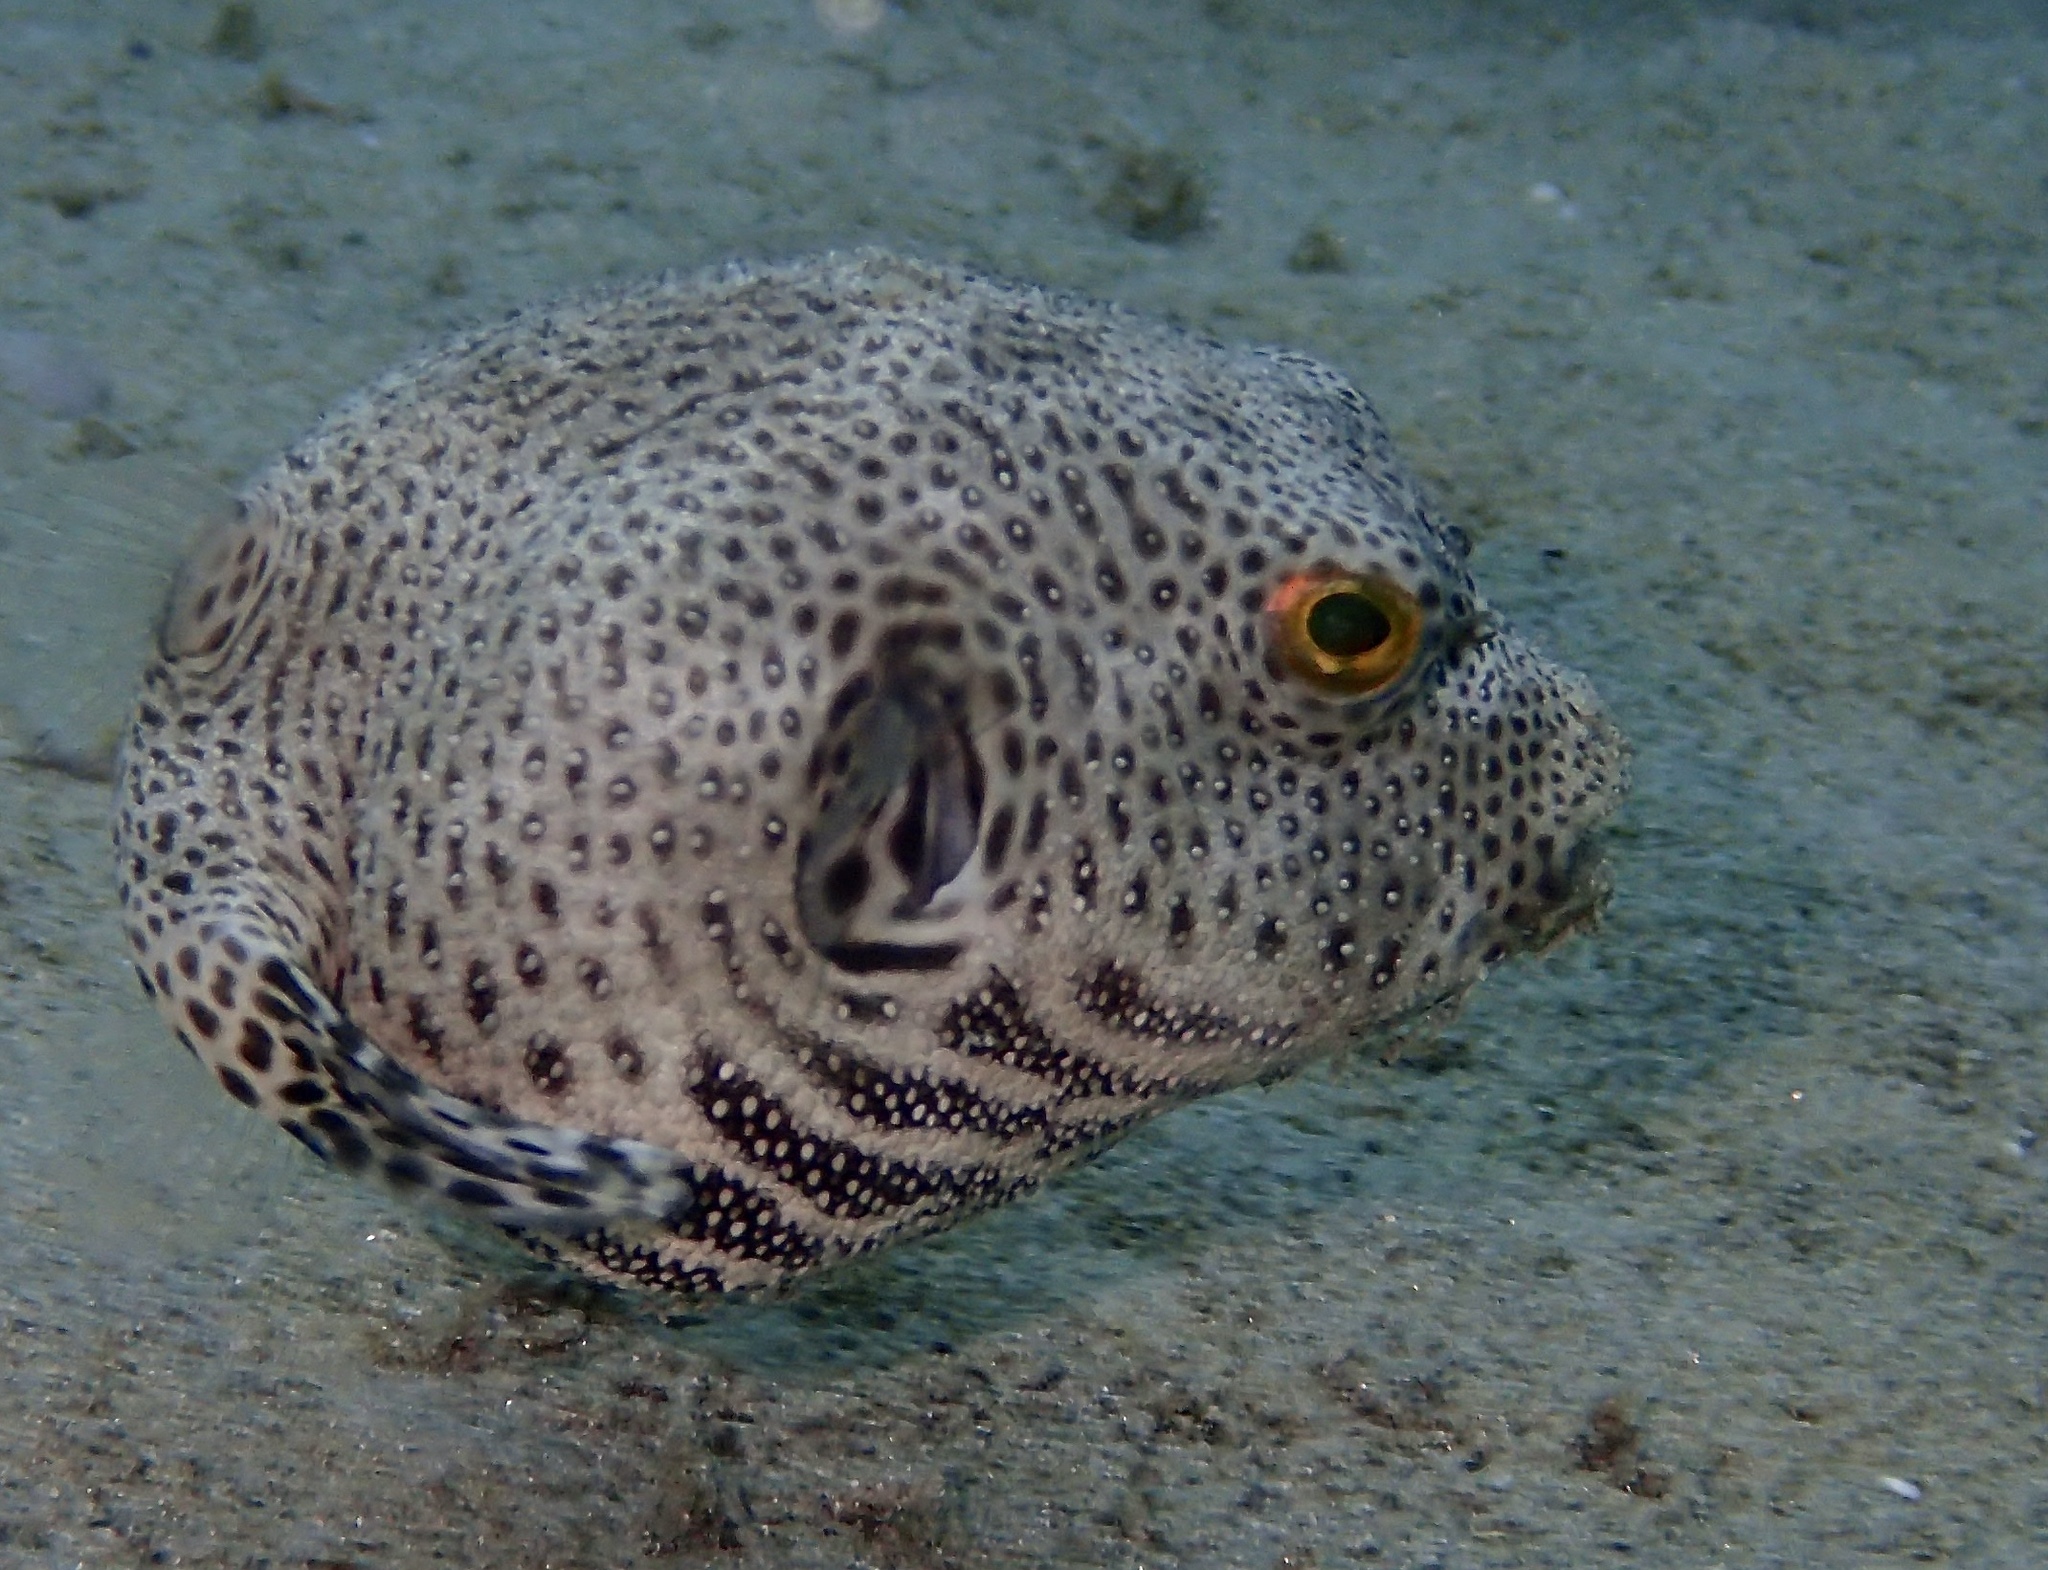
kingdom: Animalia
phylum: Chordata
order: Tetraodontiformes
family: Tetraodontidae
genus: Arothron
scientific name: Arothron stellatus
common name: Star blaasop
